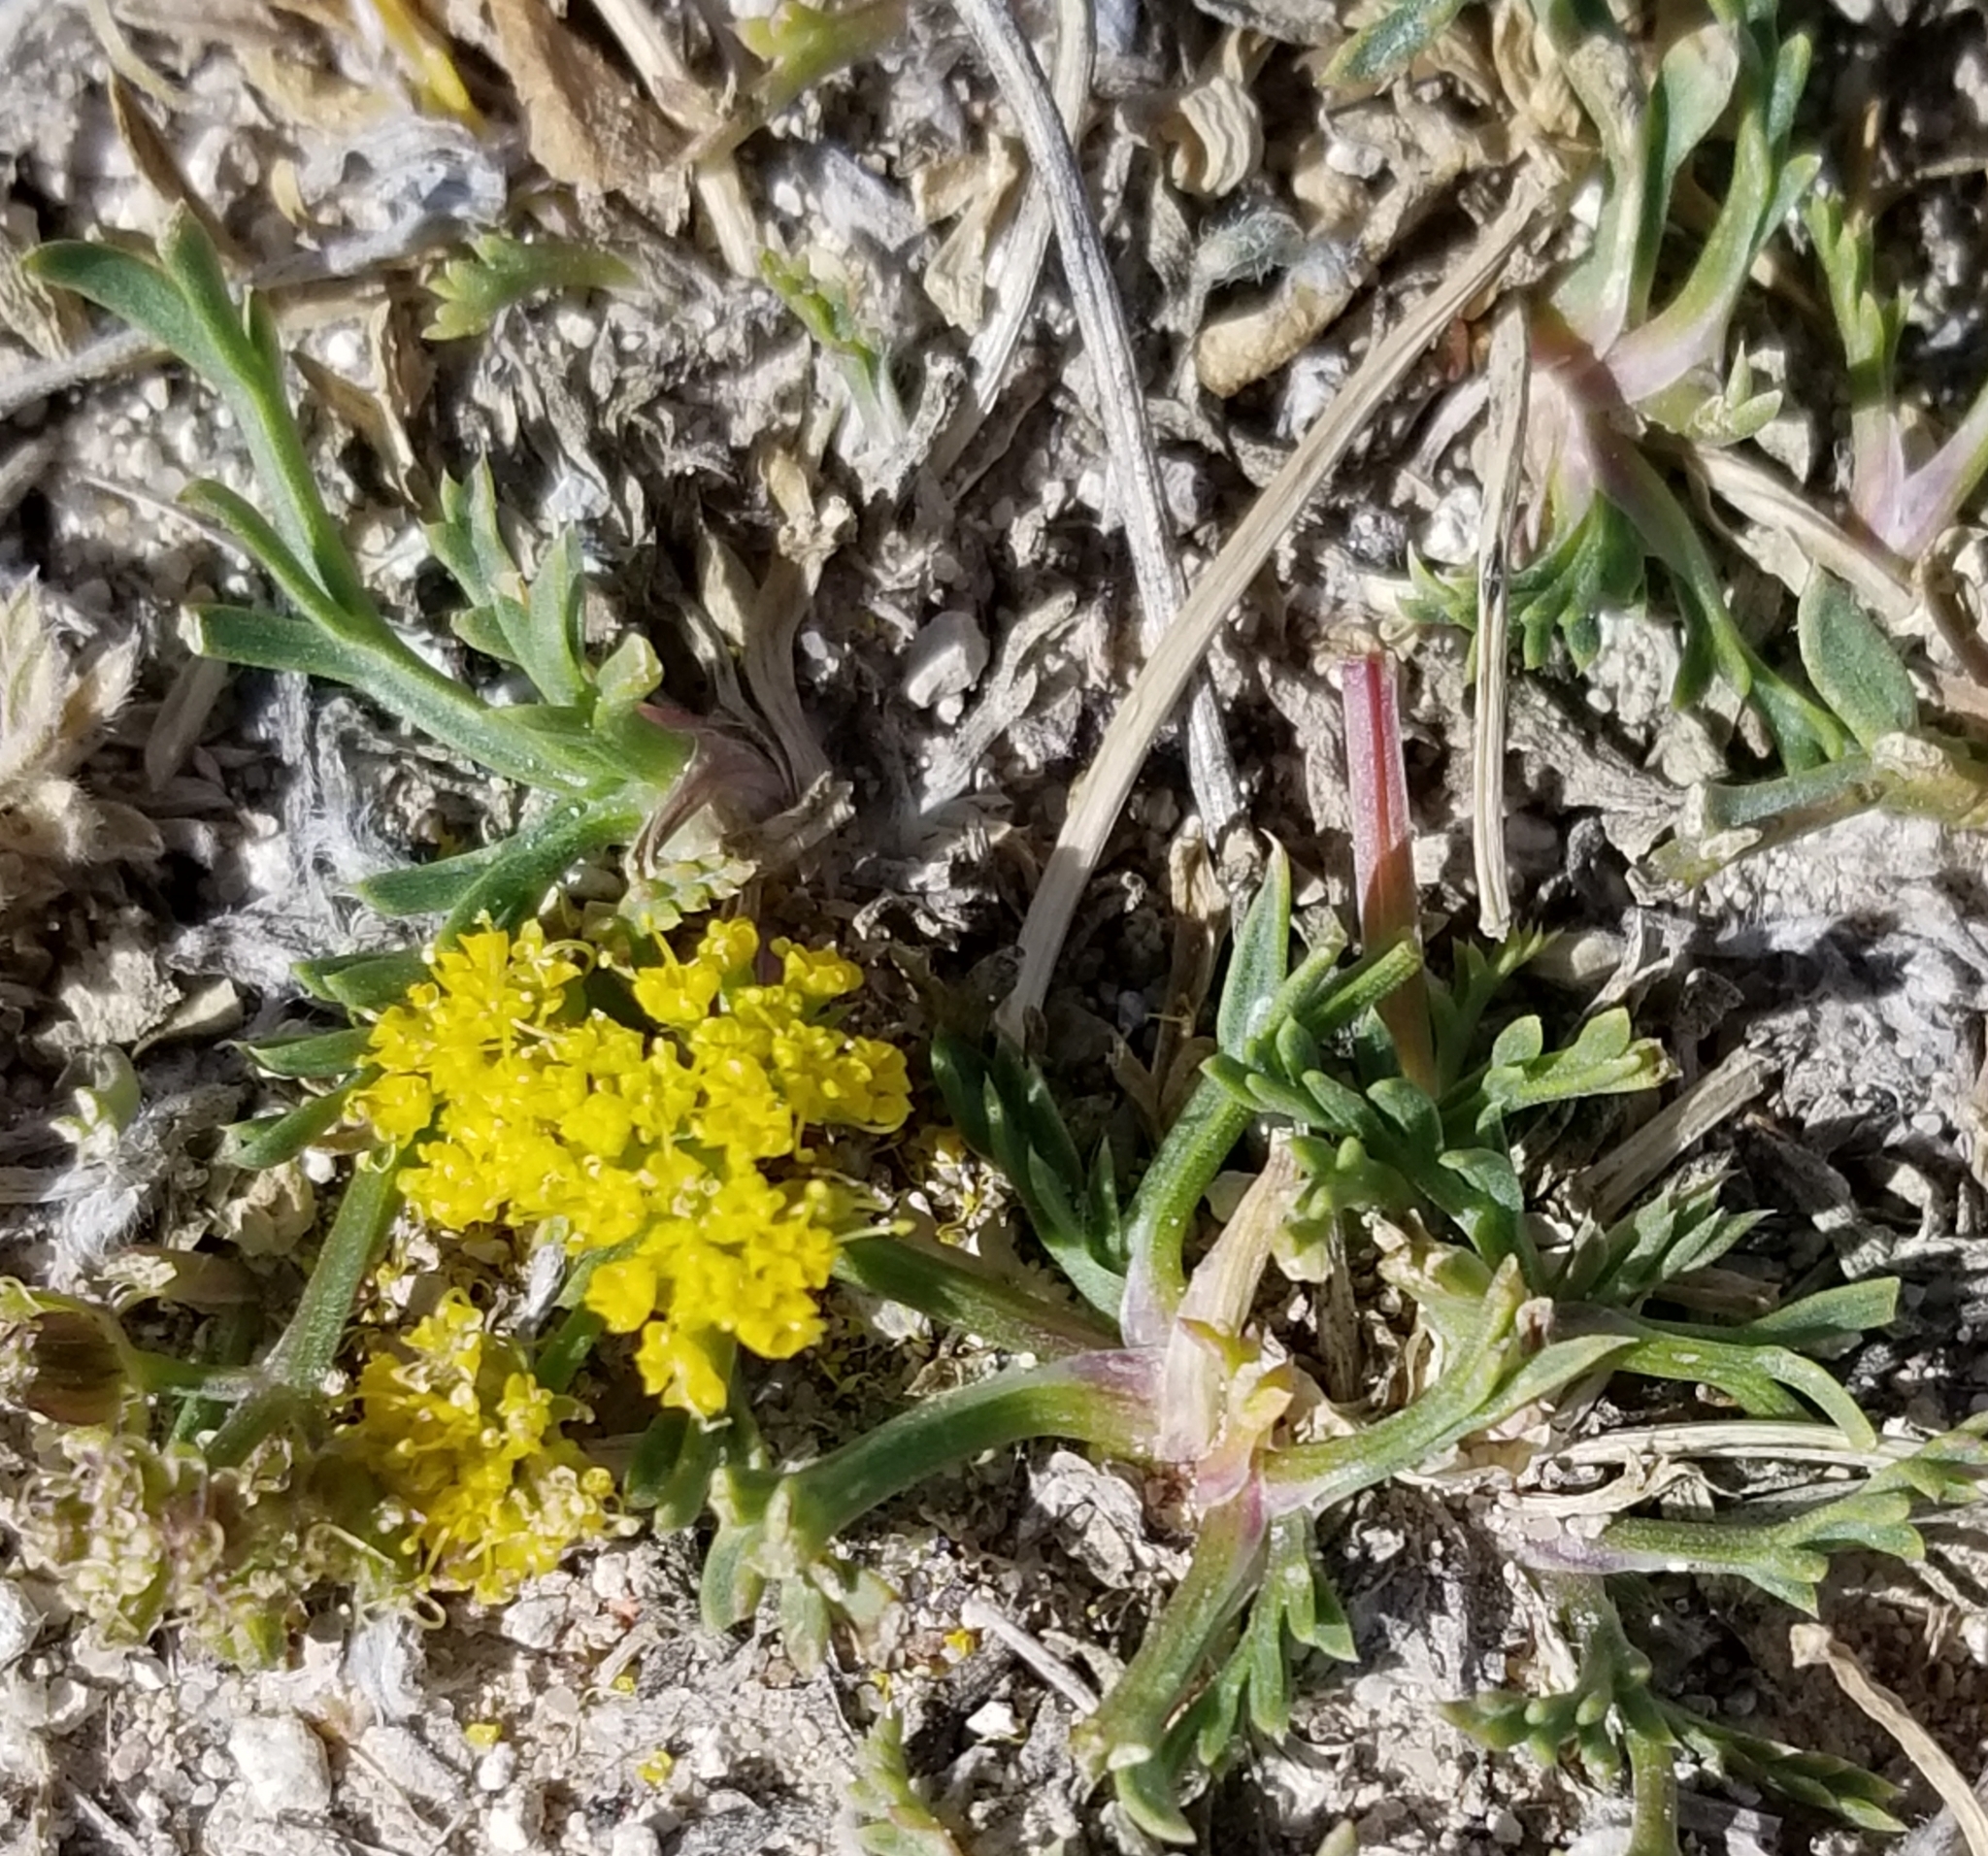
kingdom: Plantae
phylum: Tracheophyta
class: Magnoliopsida
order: Apiales
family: Apiaceae
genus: Lomatium
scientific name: Lomatium minimum
